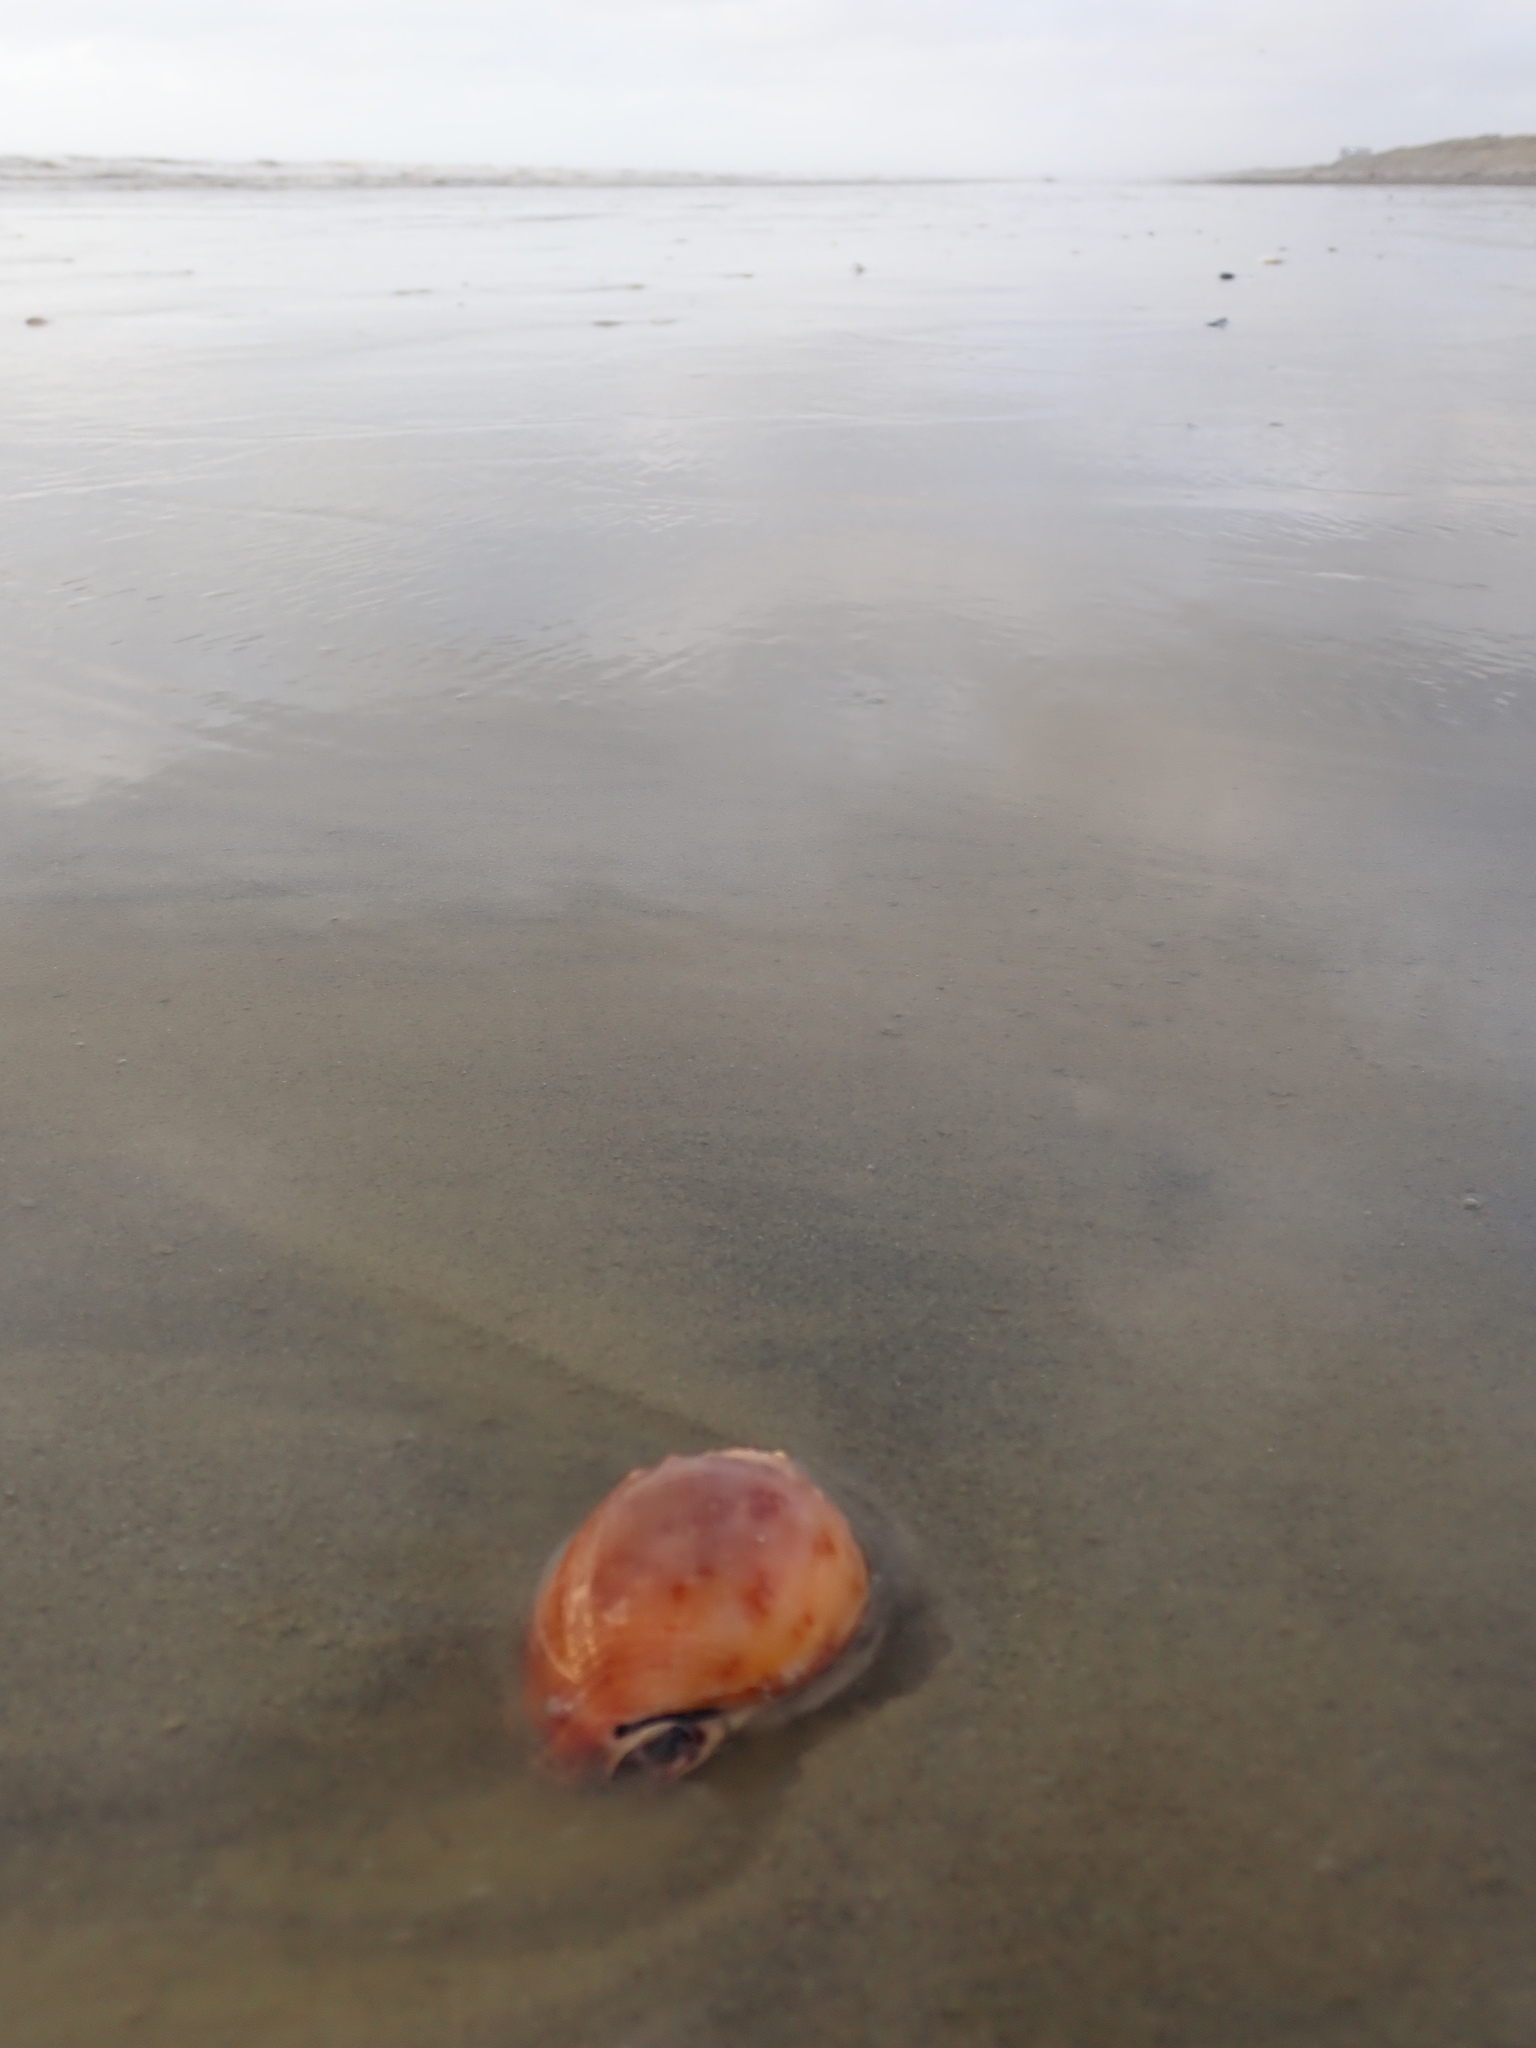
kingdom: Animalia
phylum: Mollusca
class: Gastropoda
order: Littorinimorpha
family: Cassidae
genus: Semicassis
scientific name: Semicassis pyrum
